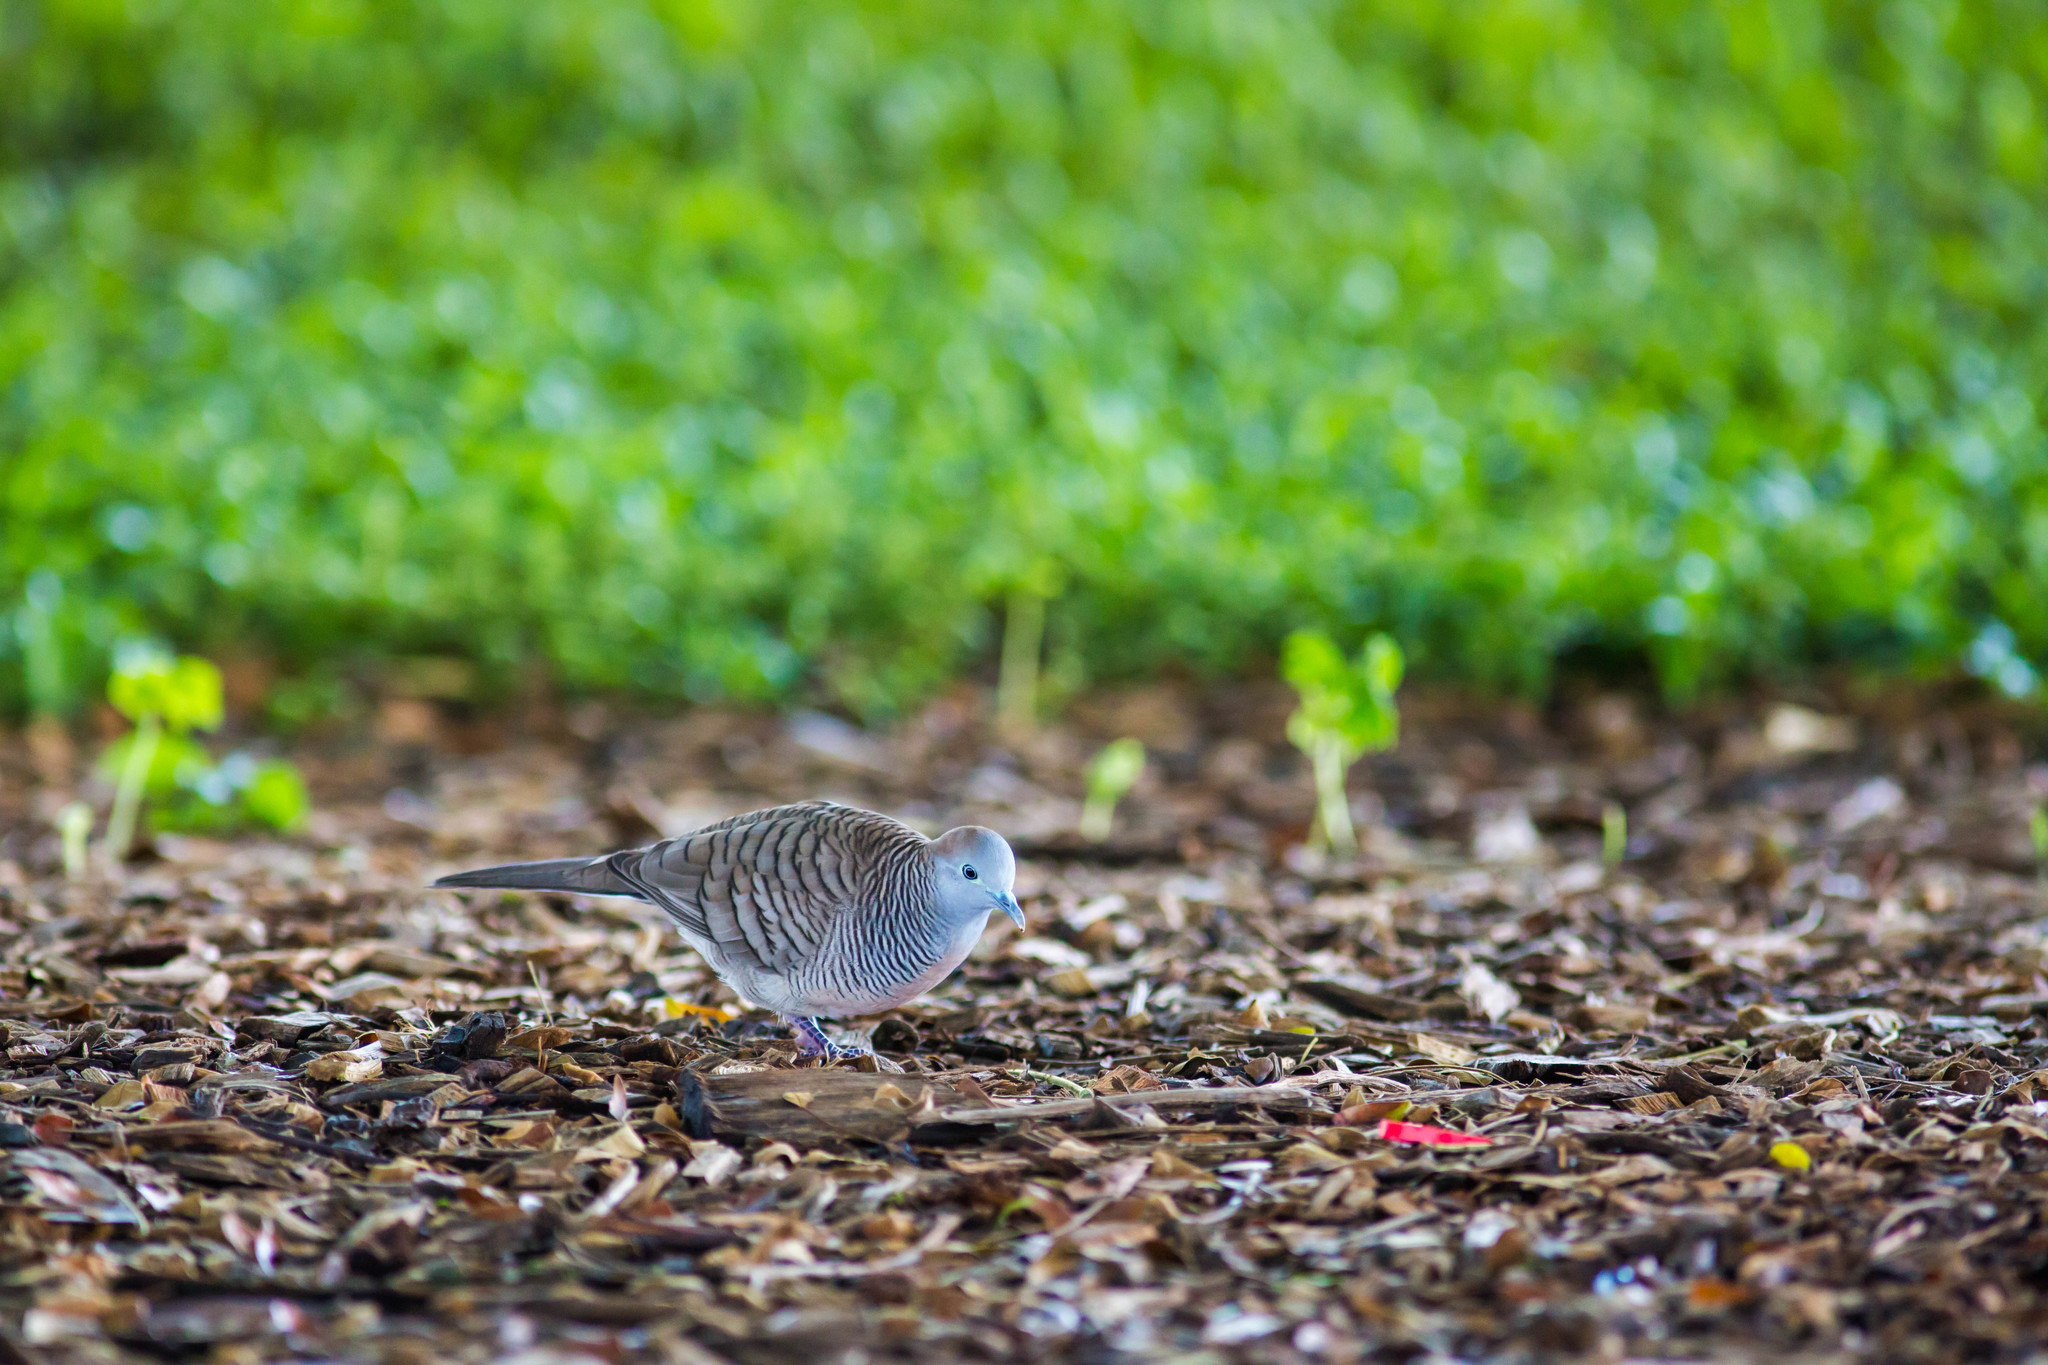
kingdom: Animalia
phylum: Chordata
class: Aves
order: Columbiformes
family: Columbidae
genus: Geopelia
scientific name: Geopelia striata
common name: Zebra dove
